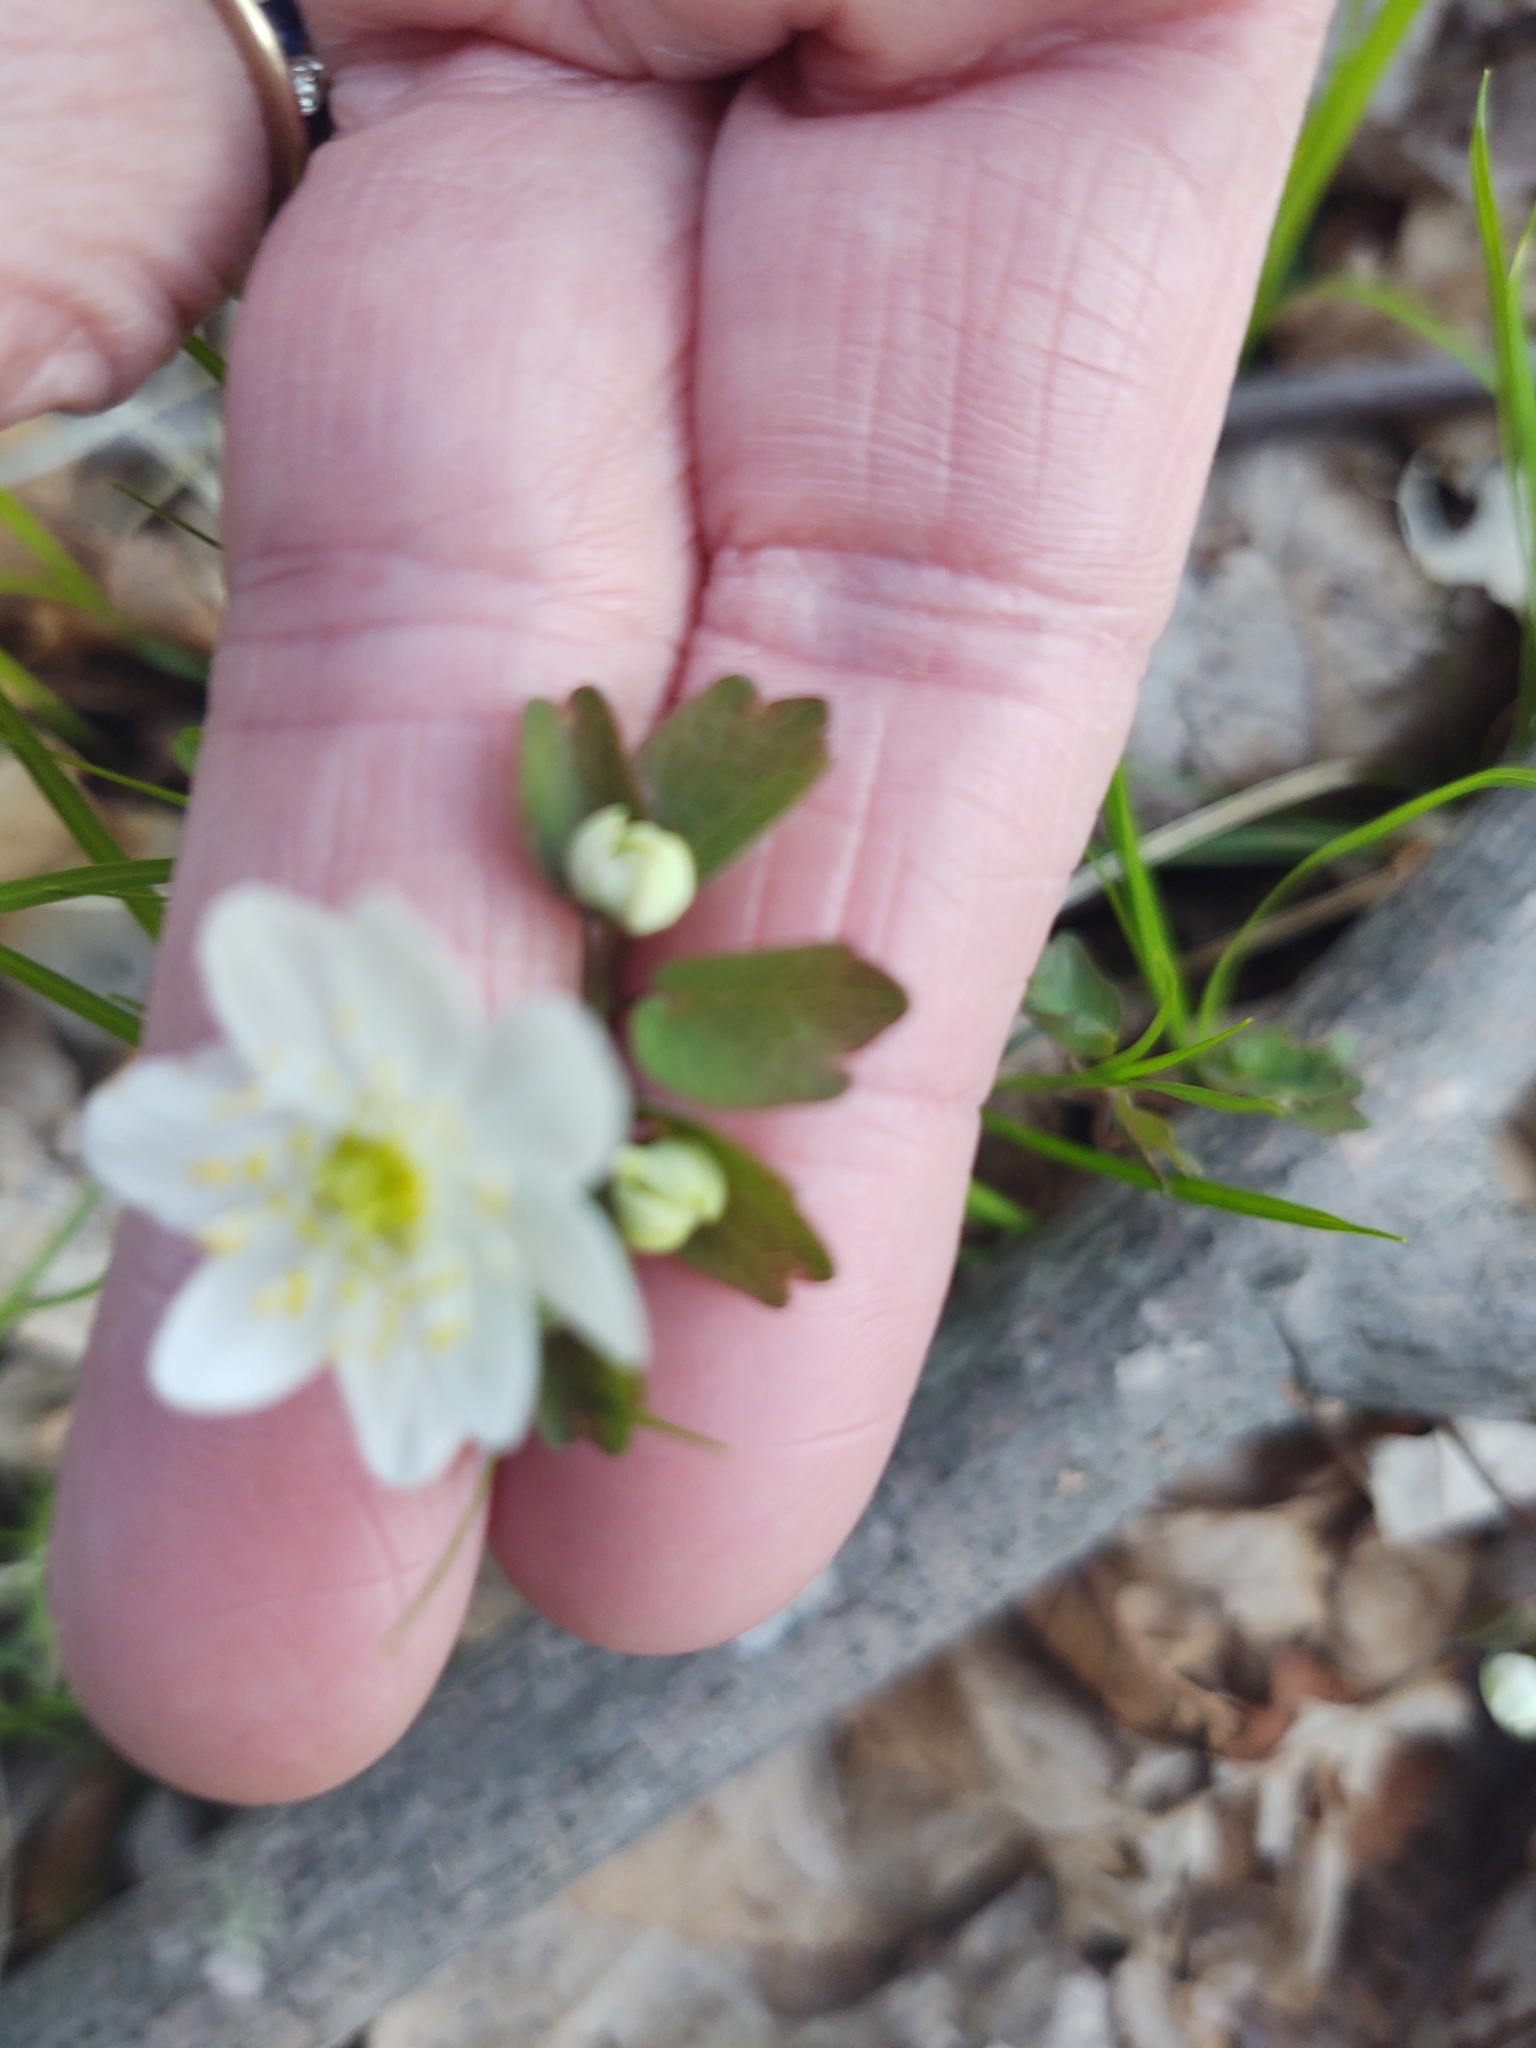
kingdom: Plantae
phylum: Tracheophyta
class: Magnoliopsida
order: Ranunculales
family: Ranunculaceae
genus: Thalictrum
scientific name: Thalictrum thalictroides
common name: Rue-anemone
